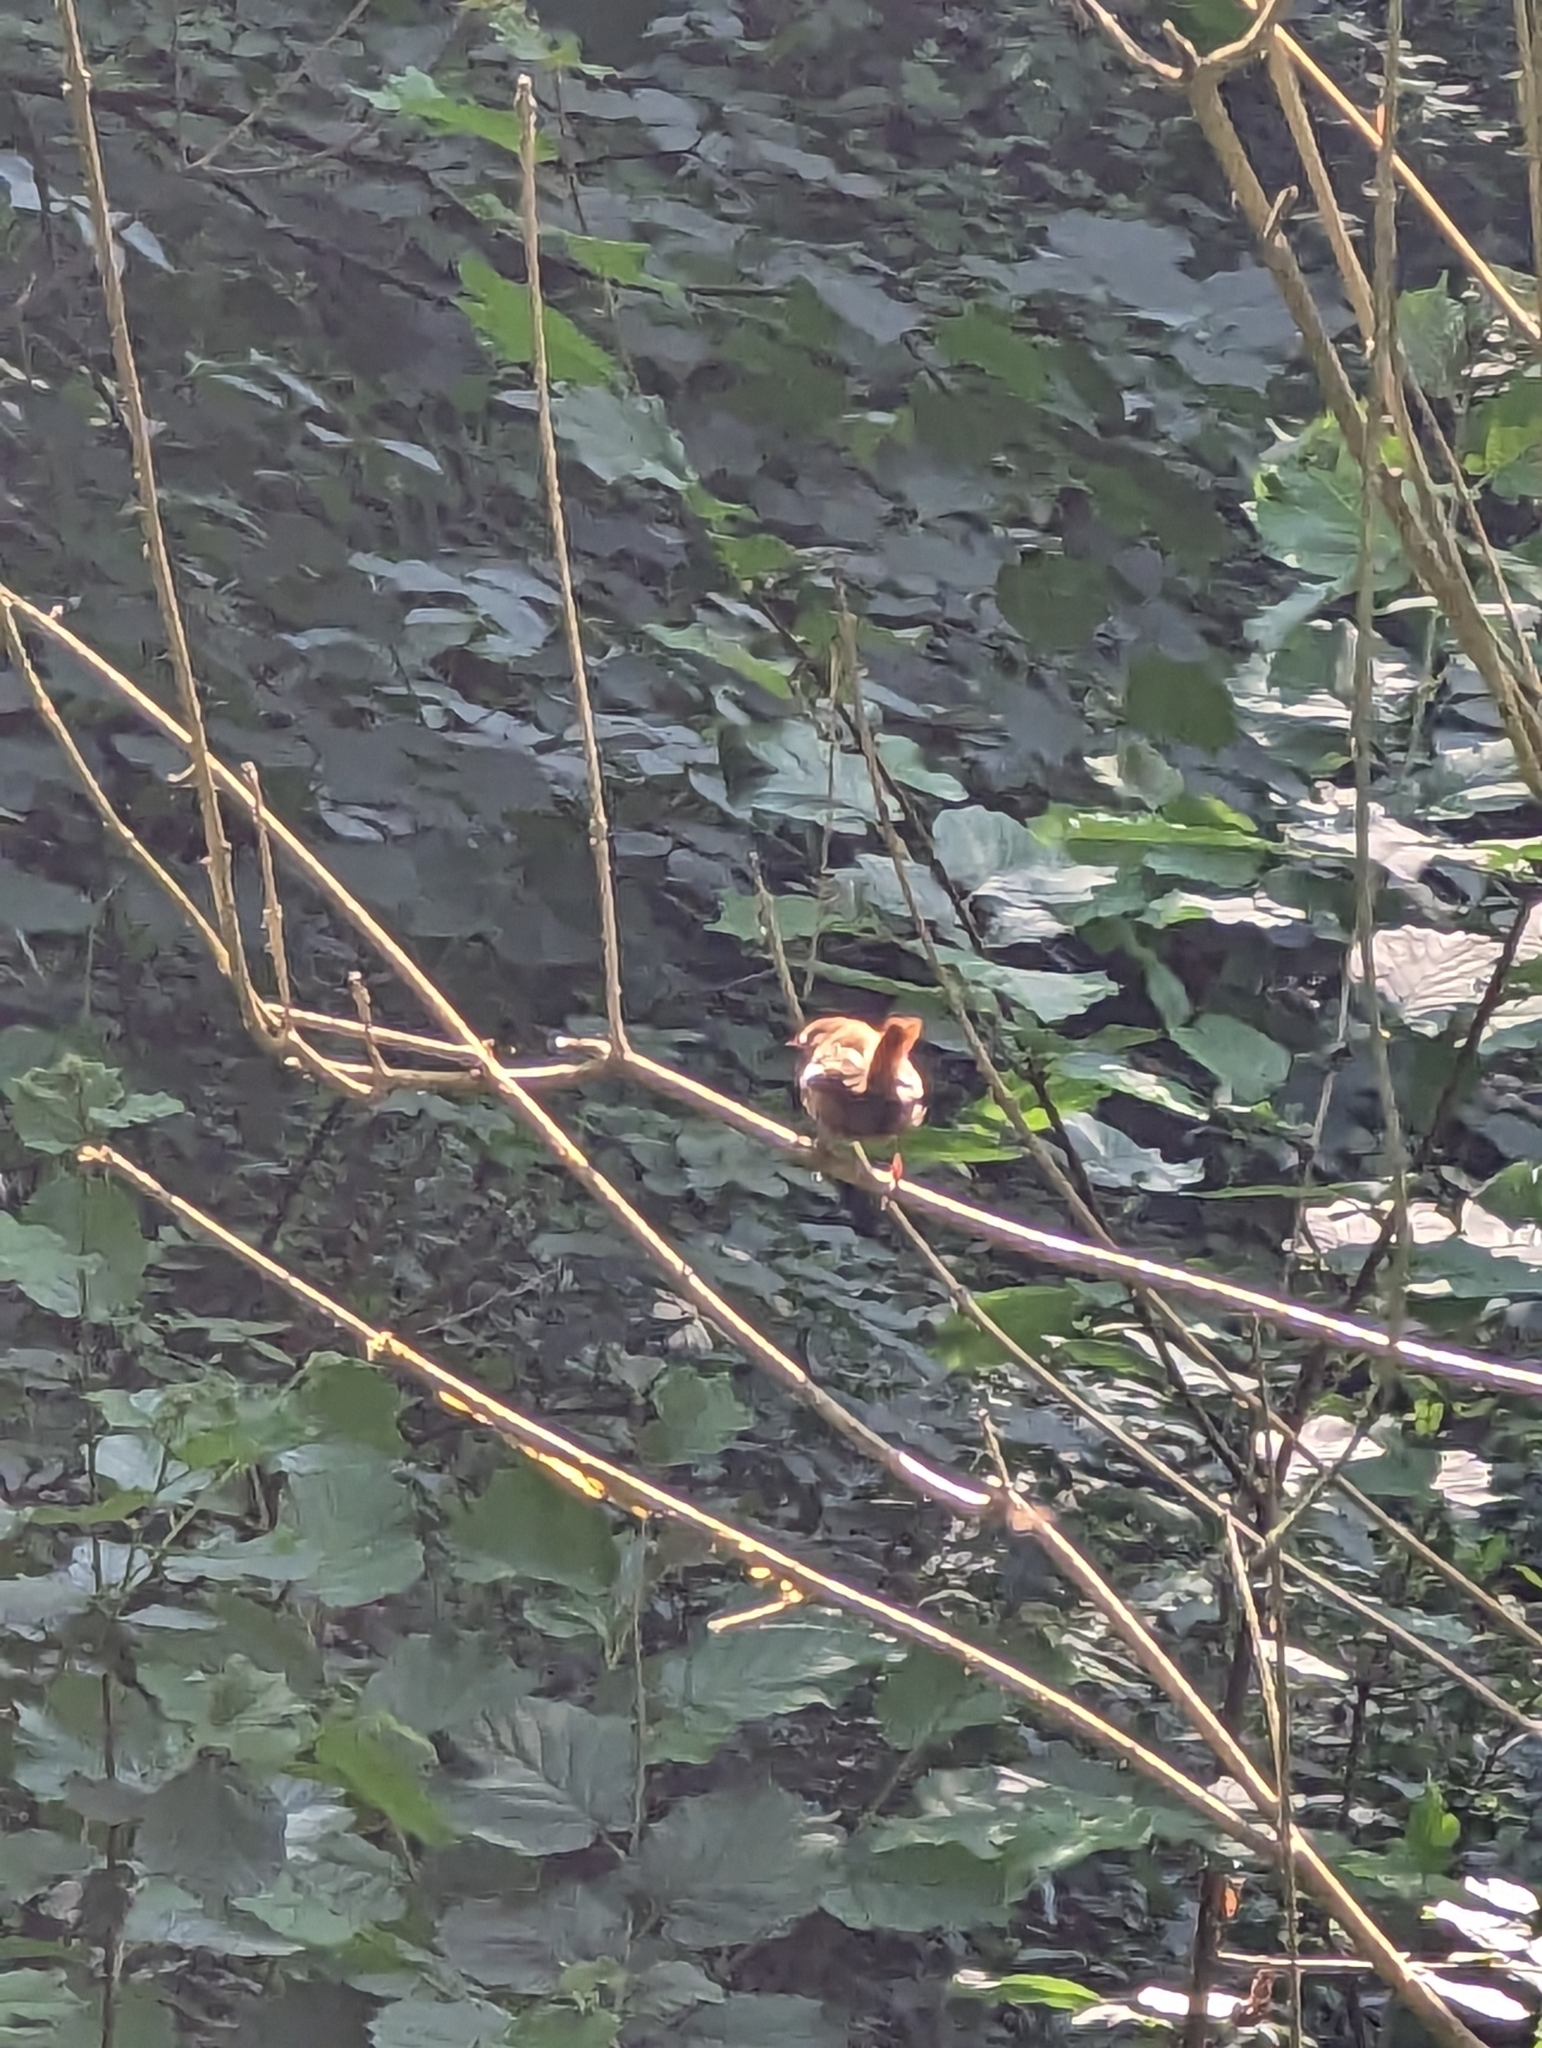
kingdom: Animalia
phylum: Chordata
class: Aves
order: Passeriformes
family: Troglodytidae
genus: Troglodytes
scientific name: Troglodytes troglodytes
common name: Eurasian wren
